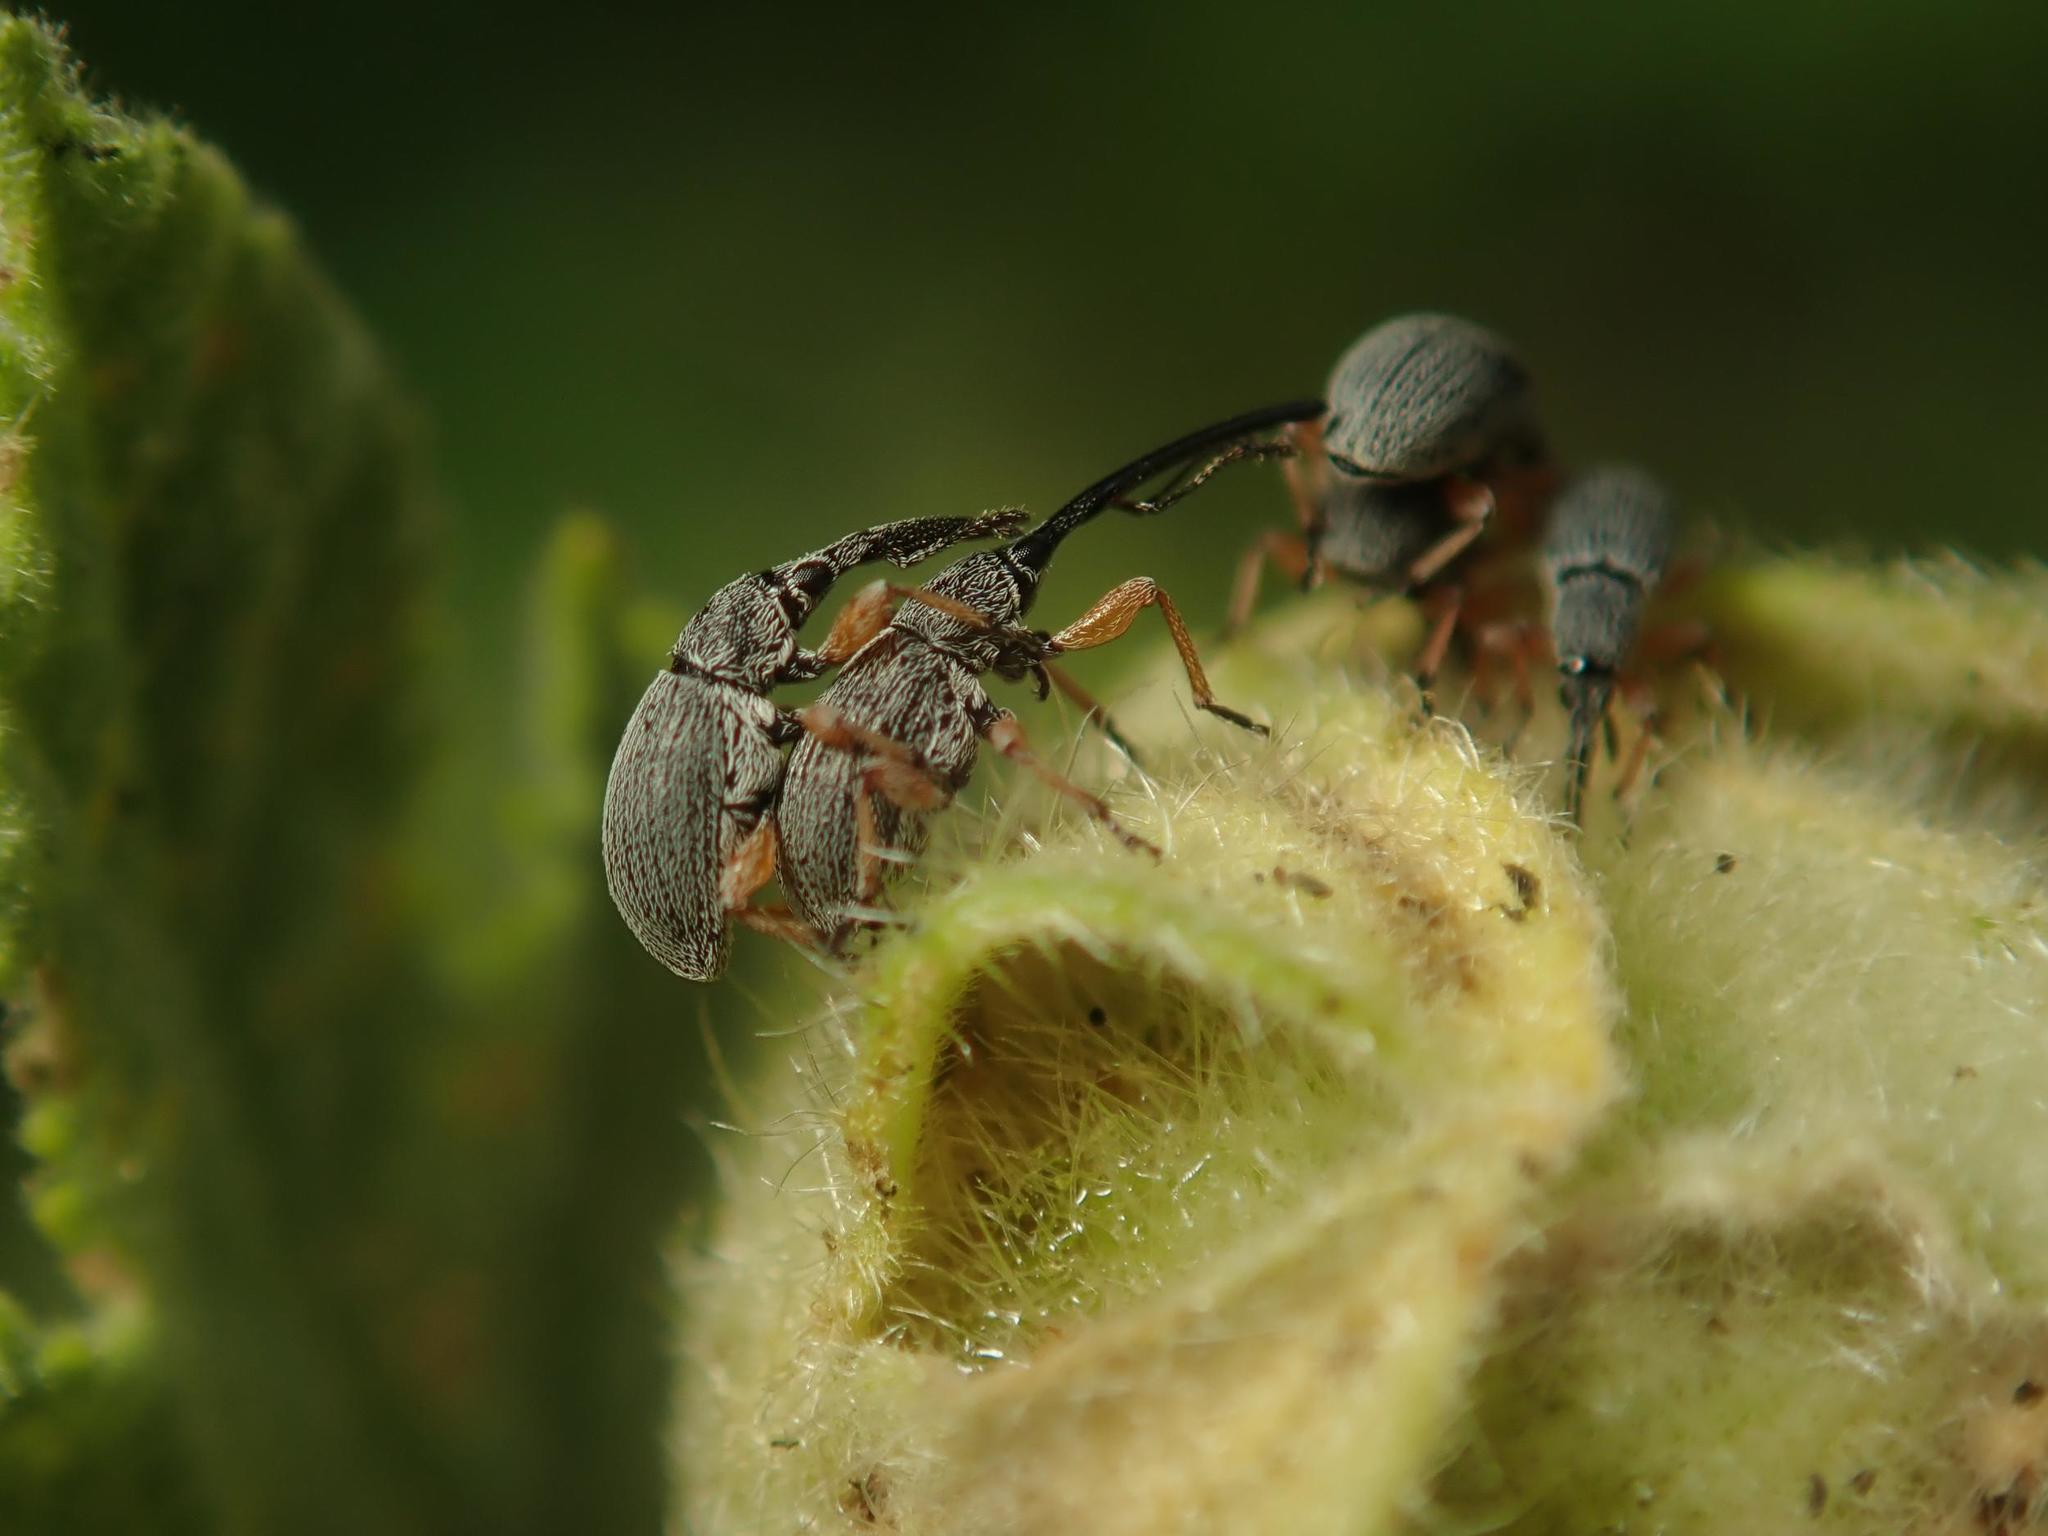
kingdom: Animalia
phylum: Arthropoda
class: Insecta
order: Coleoptera
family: Brentidae
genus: Rhopalapion
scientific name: Rhopalapion longirostre
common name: Hollyhock weevil
